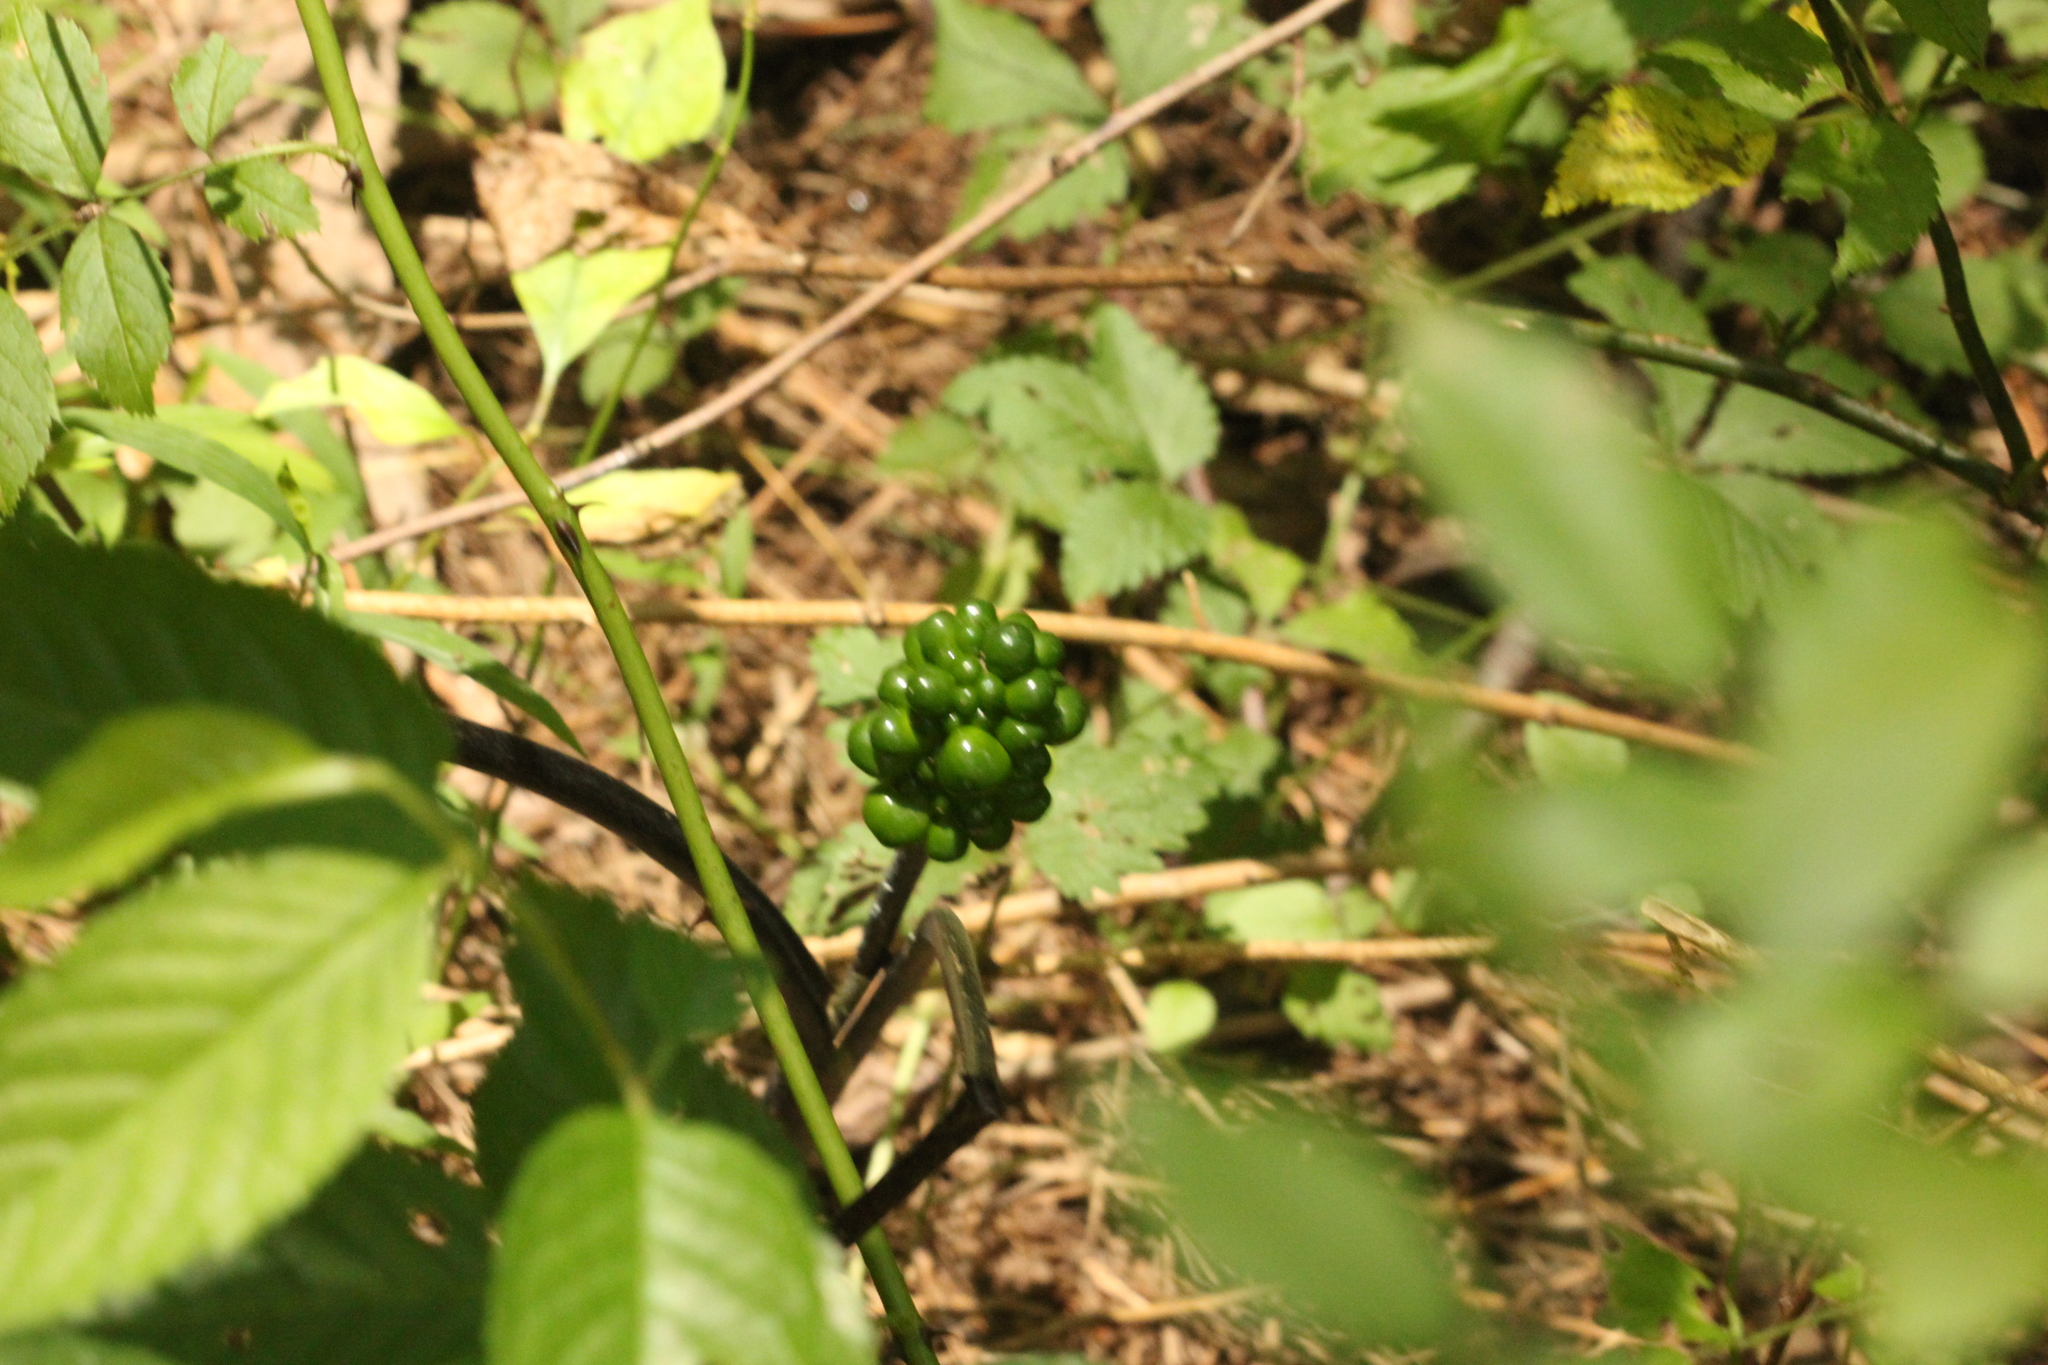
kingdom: Plantae
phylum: Tracheophyta
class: Liliopsida
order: Alismatales
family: Araceae
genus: Arisaema
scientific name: Arisaema triphyllum
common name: Jack-in-the-pulpit
